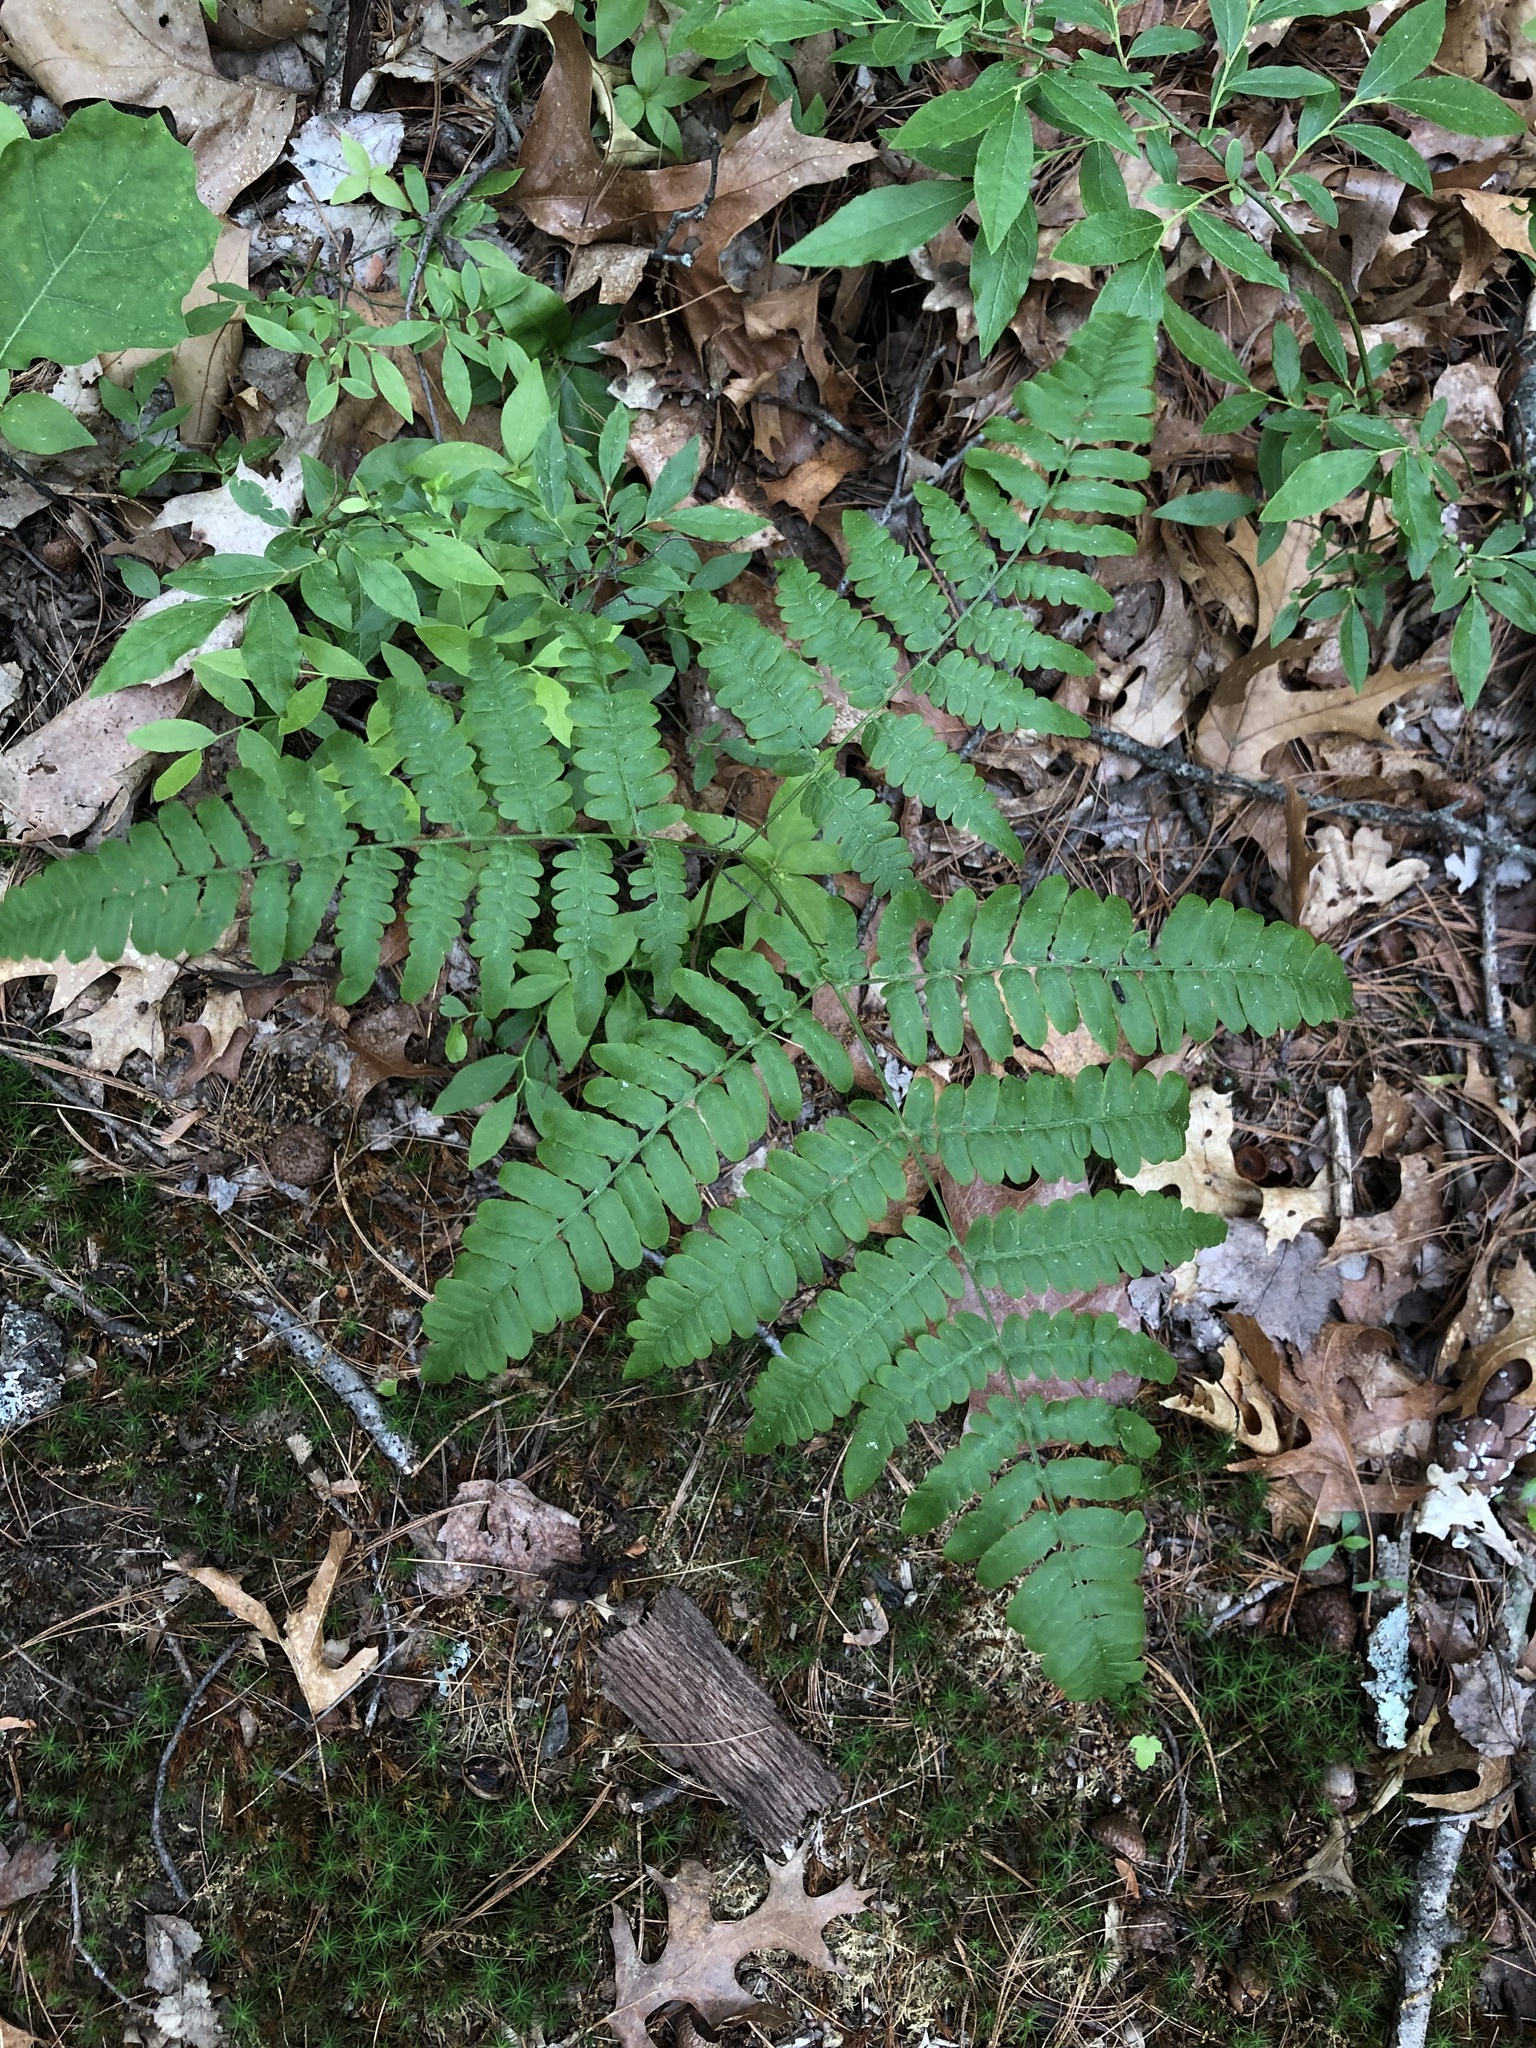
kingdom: Plantae
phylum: Tracheophyta
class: Polypodiopsida
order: Polypodiales
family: Dennstaedtiaceae
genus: Pteridium
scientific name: Pteridium aquilinum
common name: Bracken
